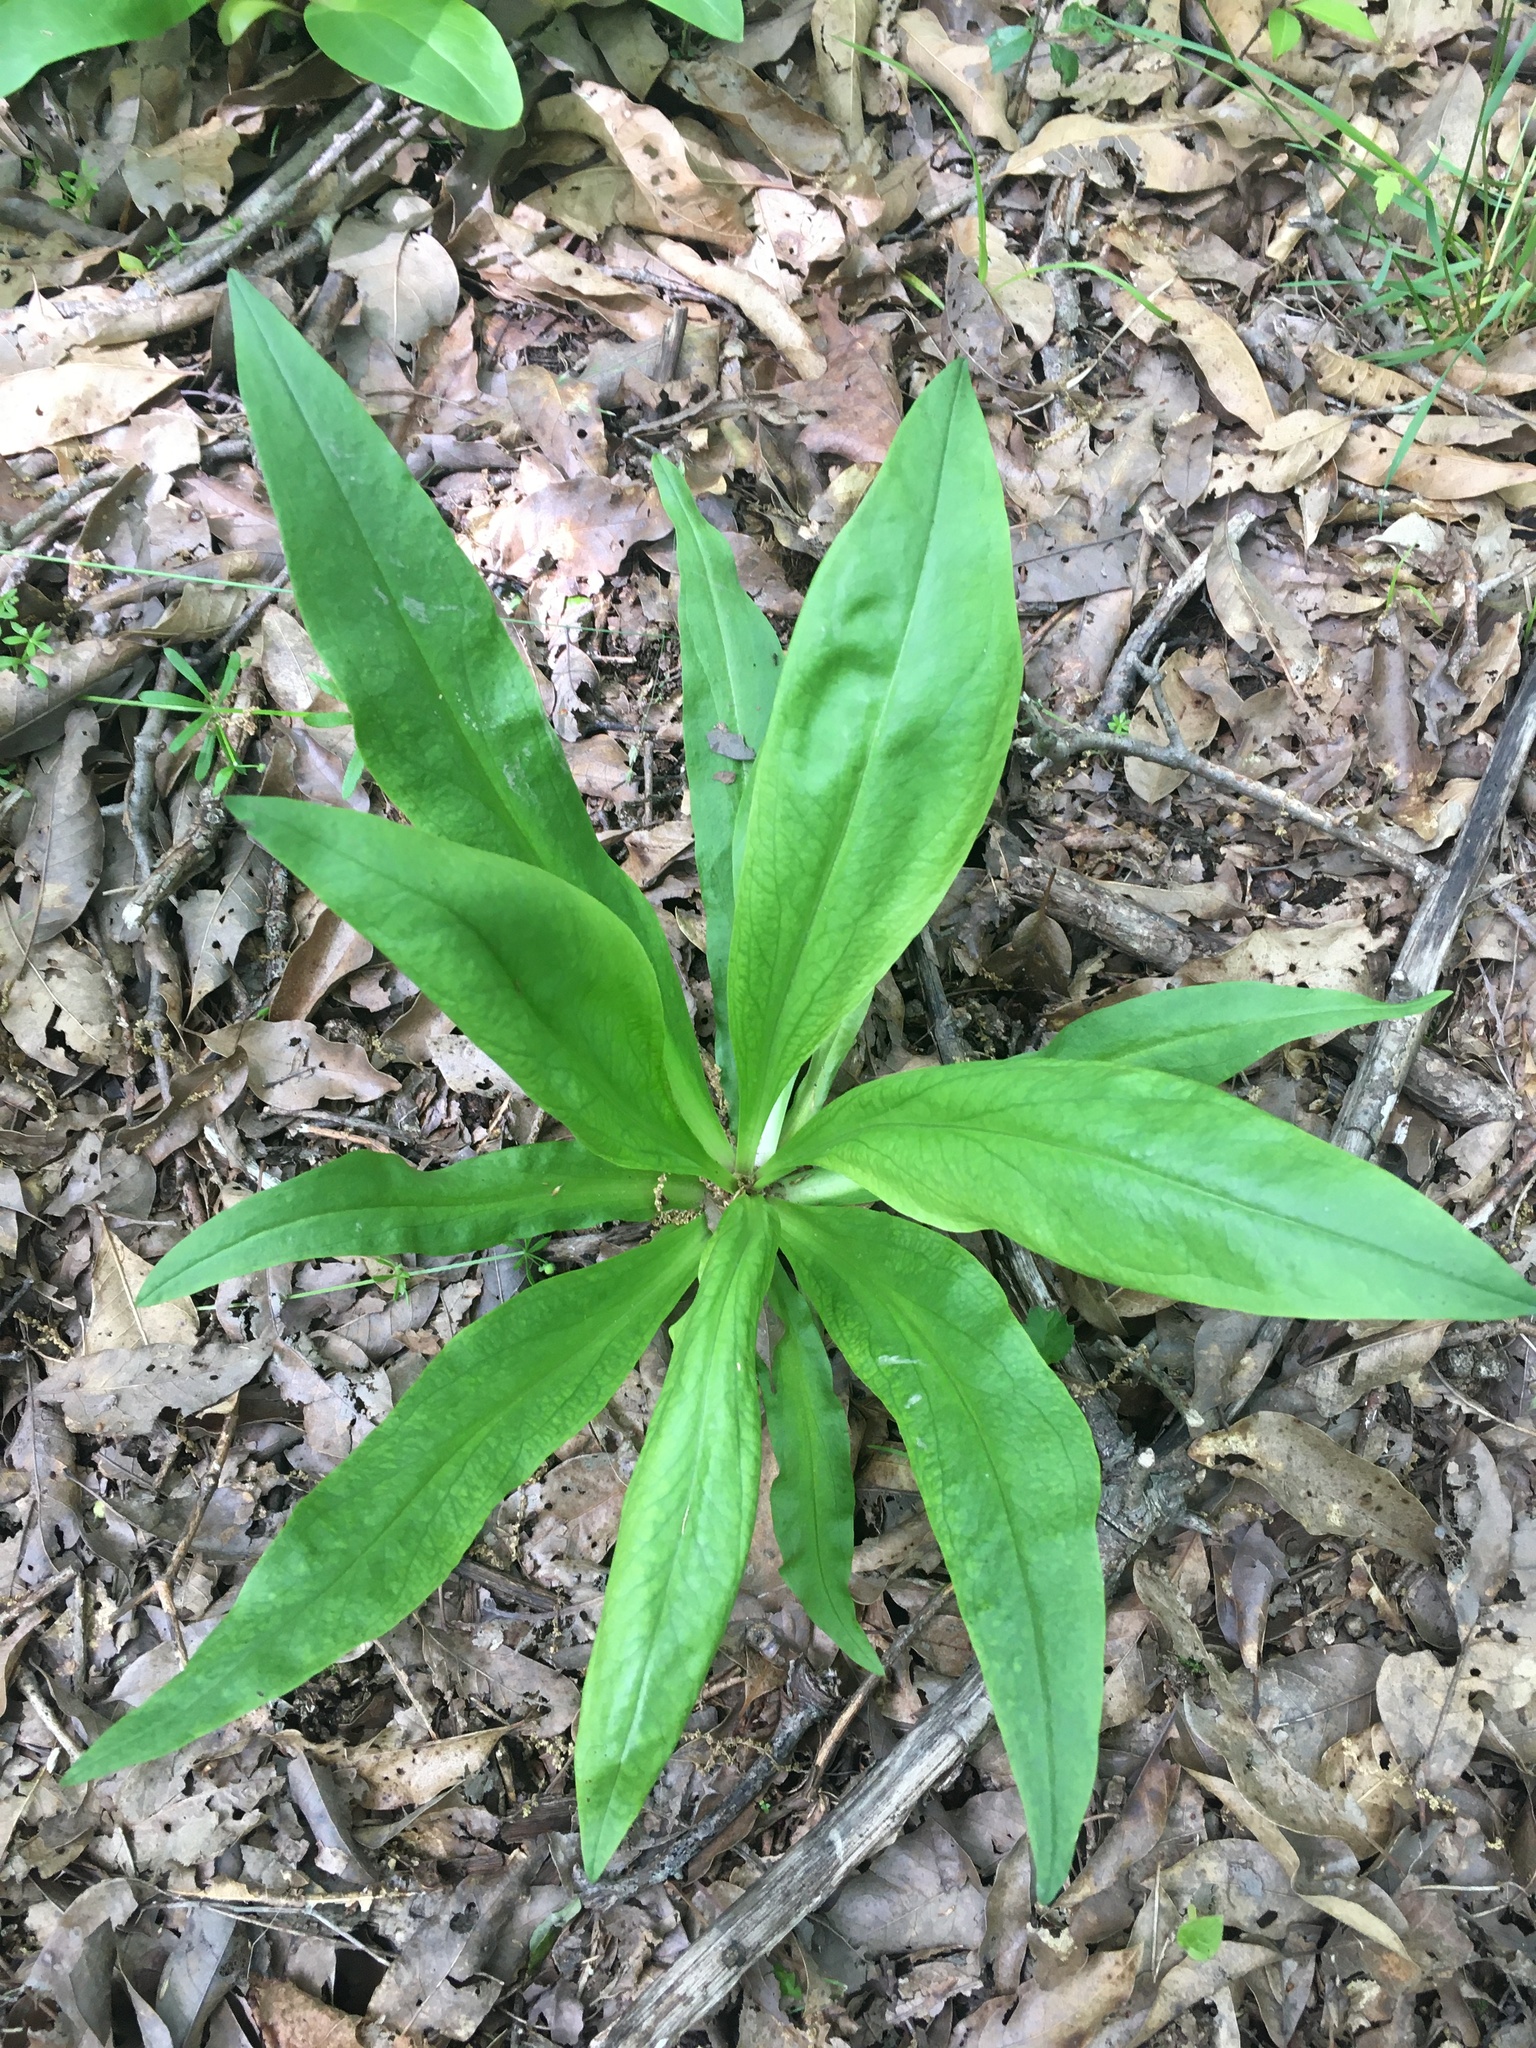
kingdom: Plantae
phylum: Tracheophyta
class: Magnoliopsida
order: Gentianales
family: Gentianaceae
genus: Frasera
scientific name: Frasera caroliniensis
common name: American columbo
